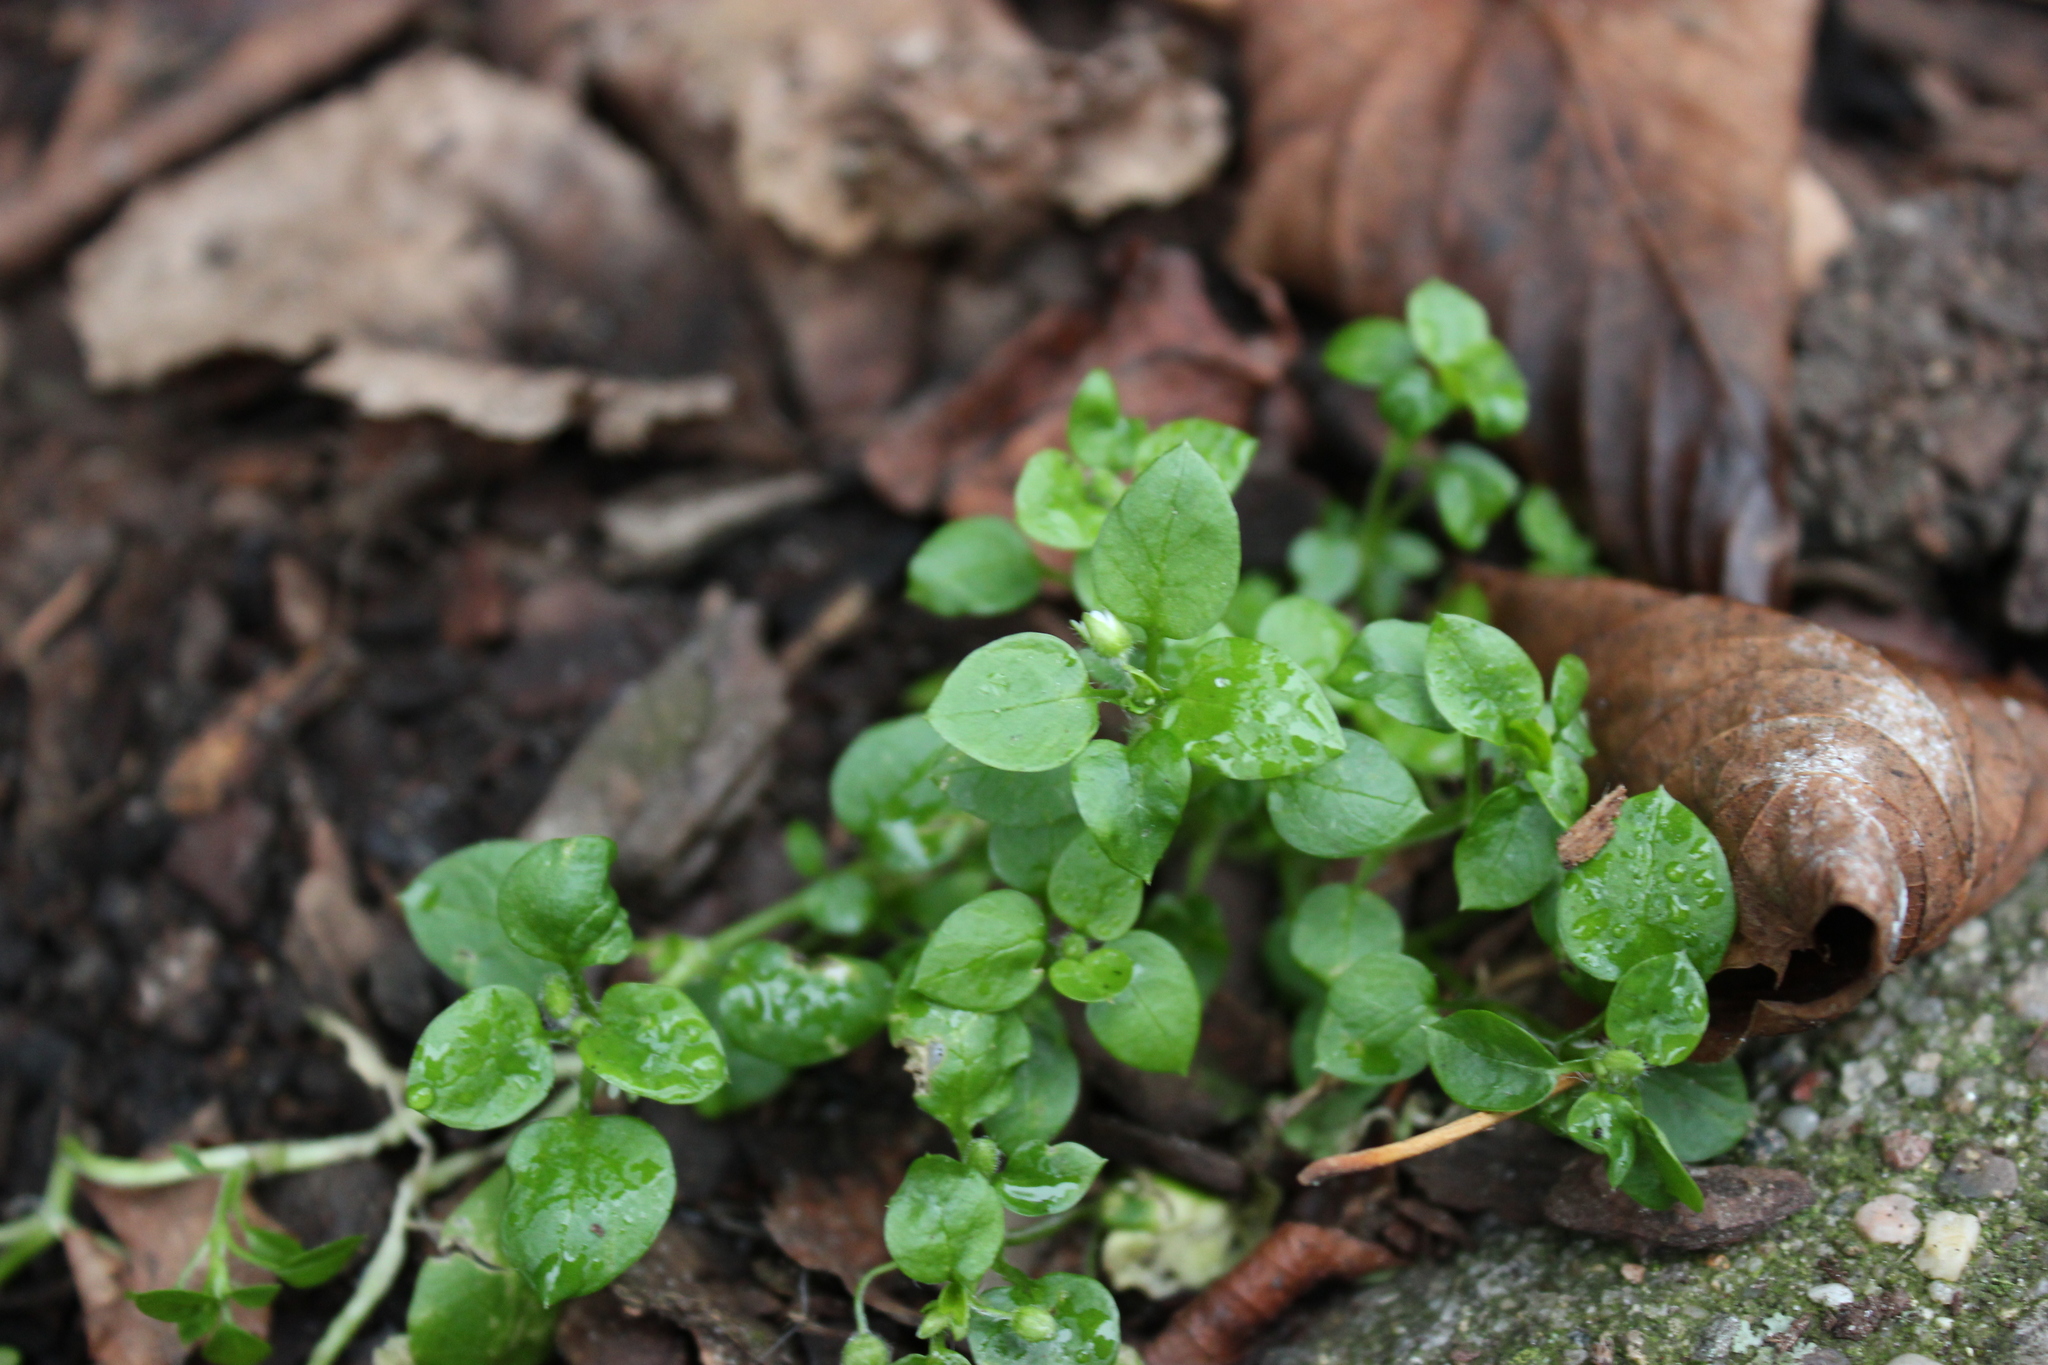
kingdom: Plantae
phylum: Tracheophyta
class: Magnoliopsida
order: Caryophyllales
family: Caryophyllaceae
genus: Stellaria
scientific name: Stellaria media
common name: Common chickweed
